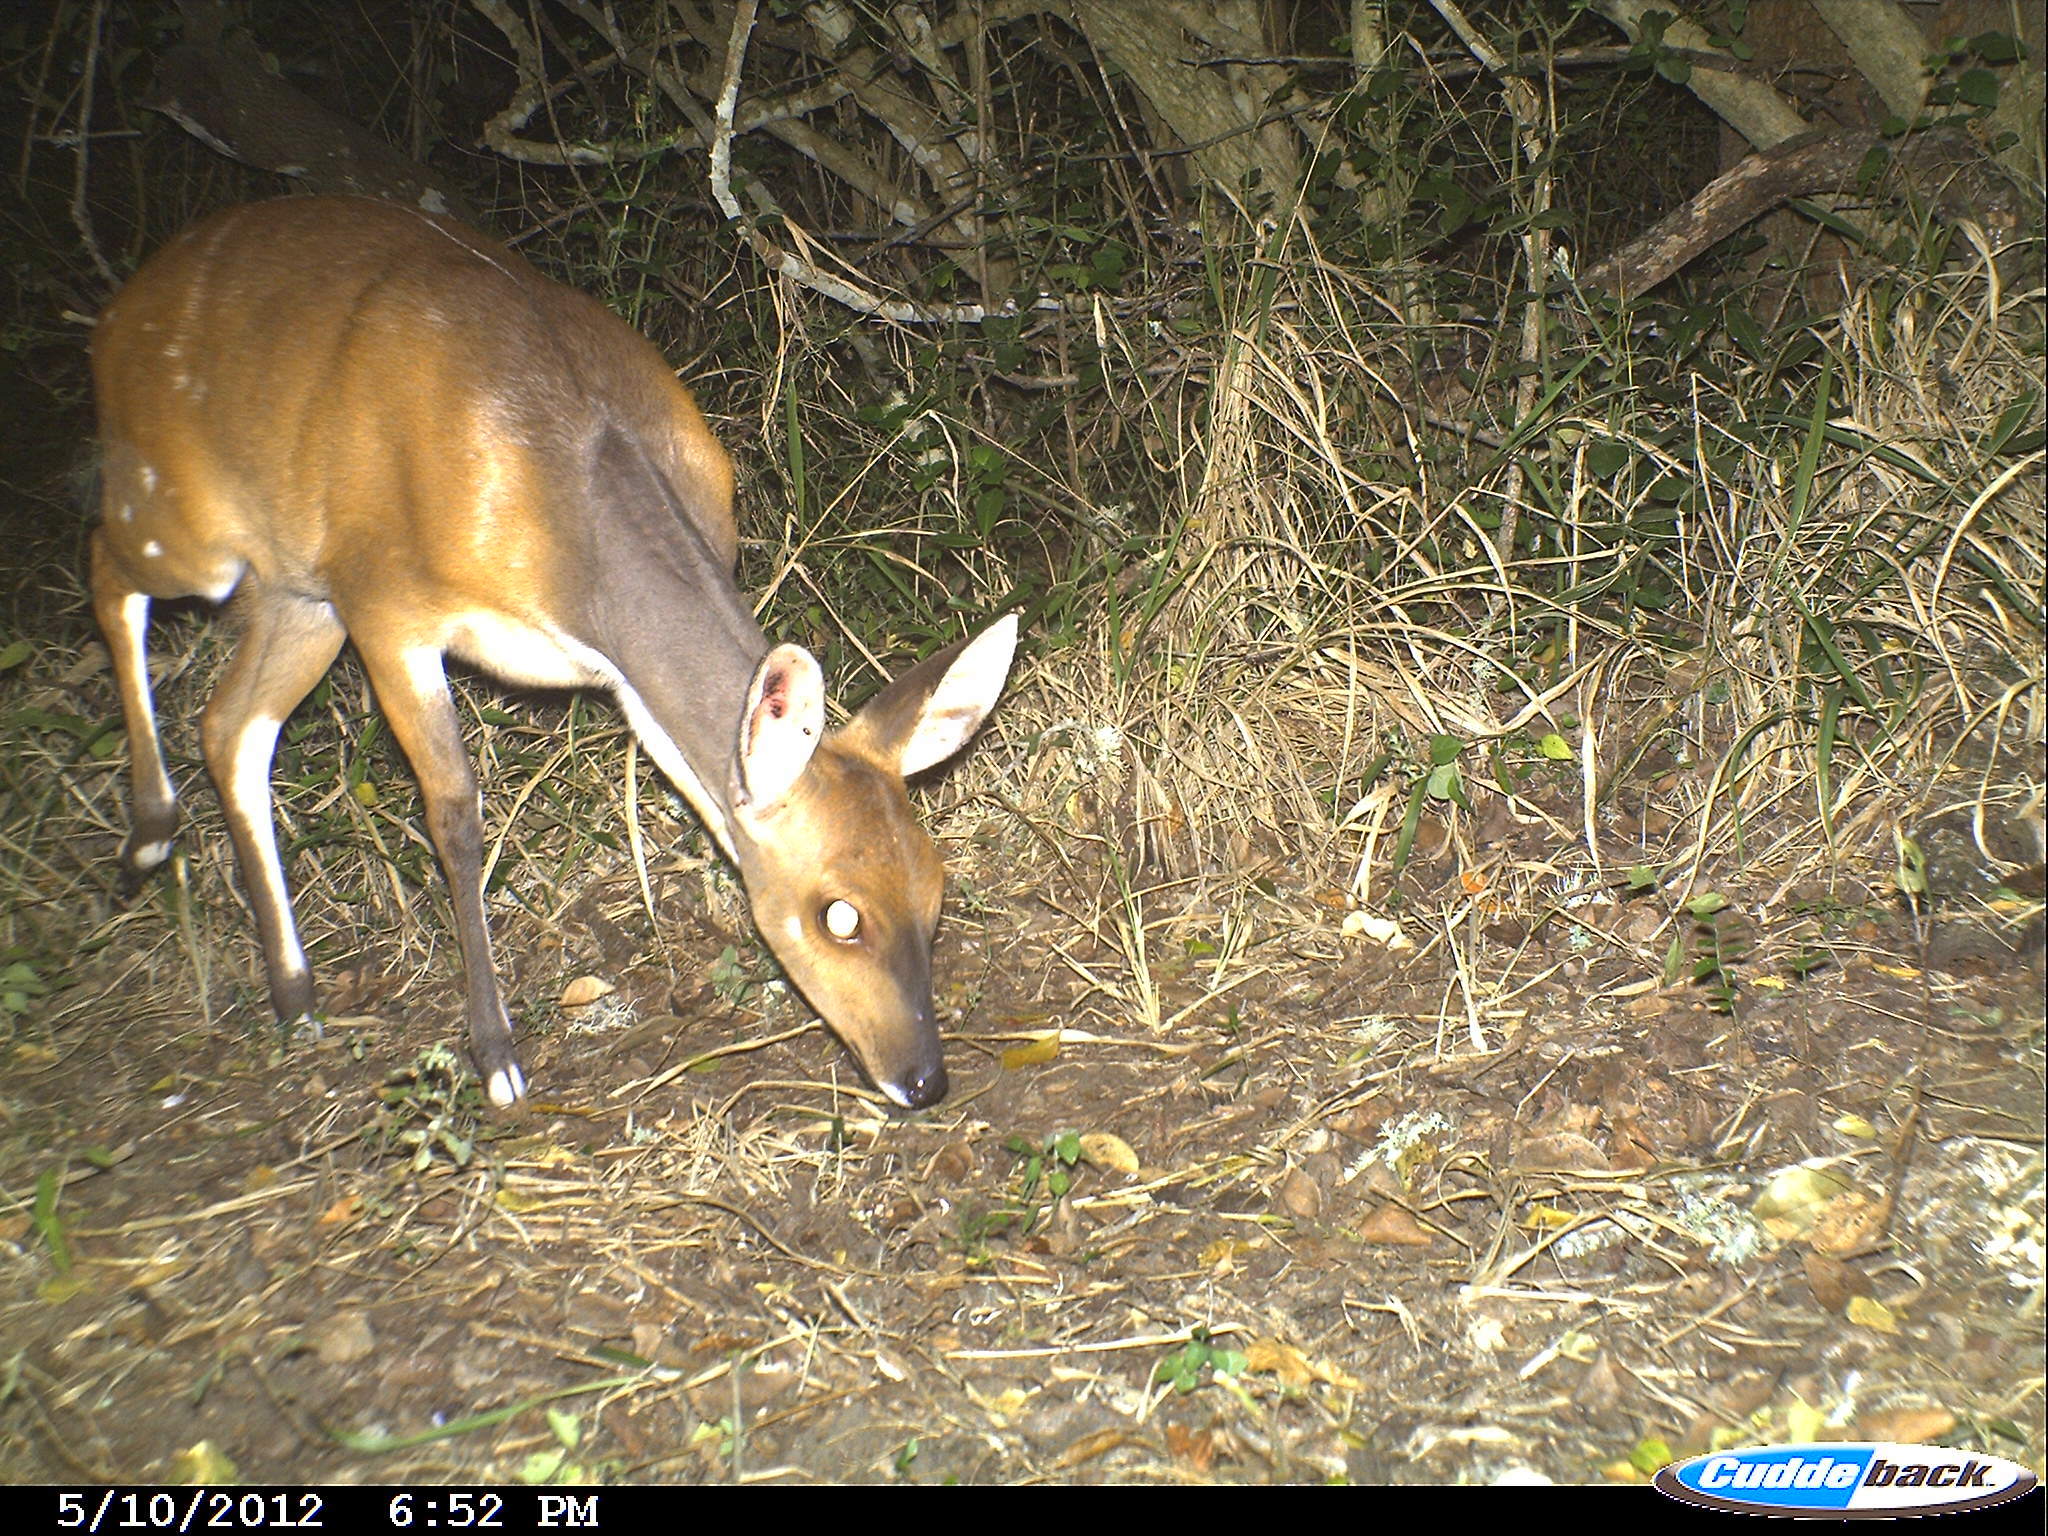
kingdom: Animalia
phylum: Chordata
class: Mammalia
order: Artiodactyla
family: Bovidae
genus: Tragelaphus
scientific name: Tragelaphus scriptus
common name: Bushbuck
